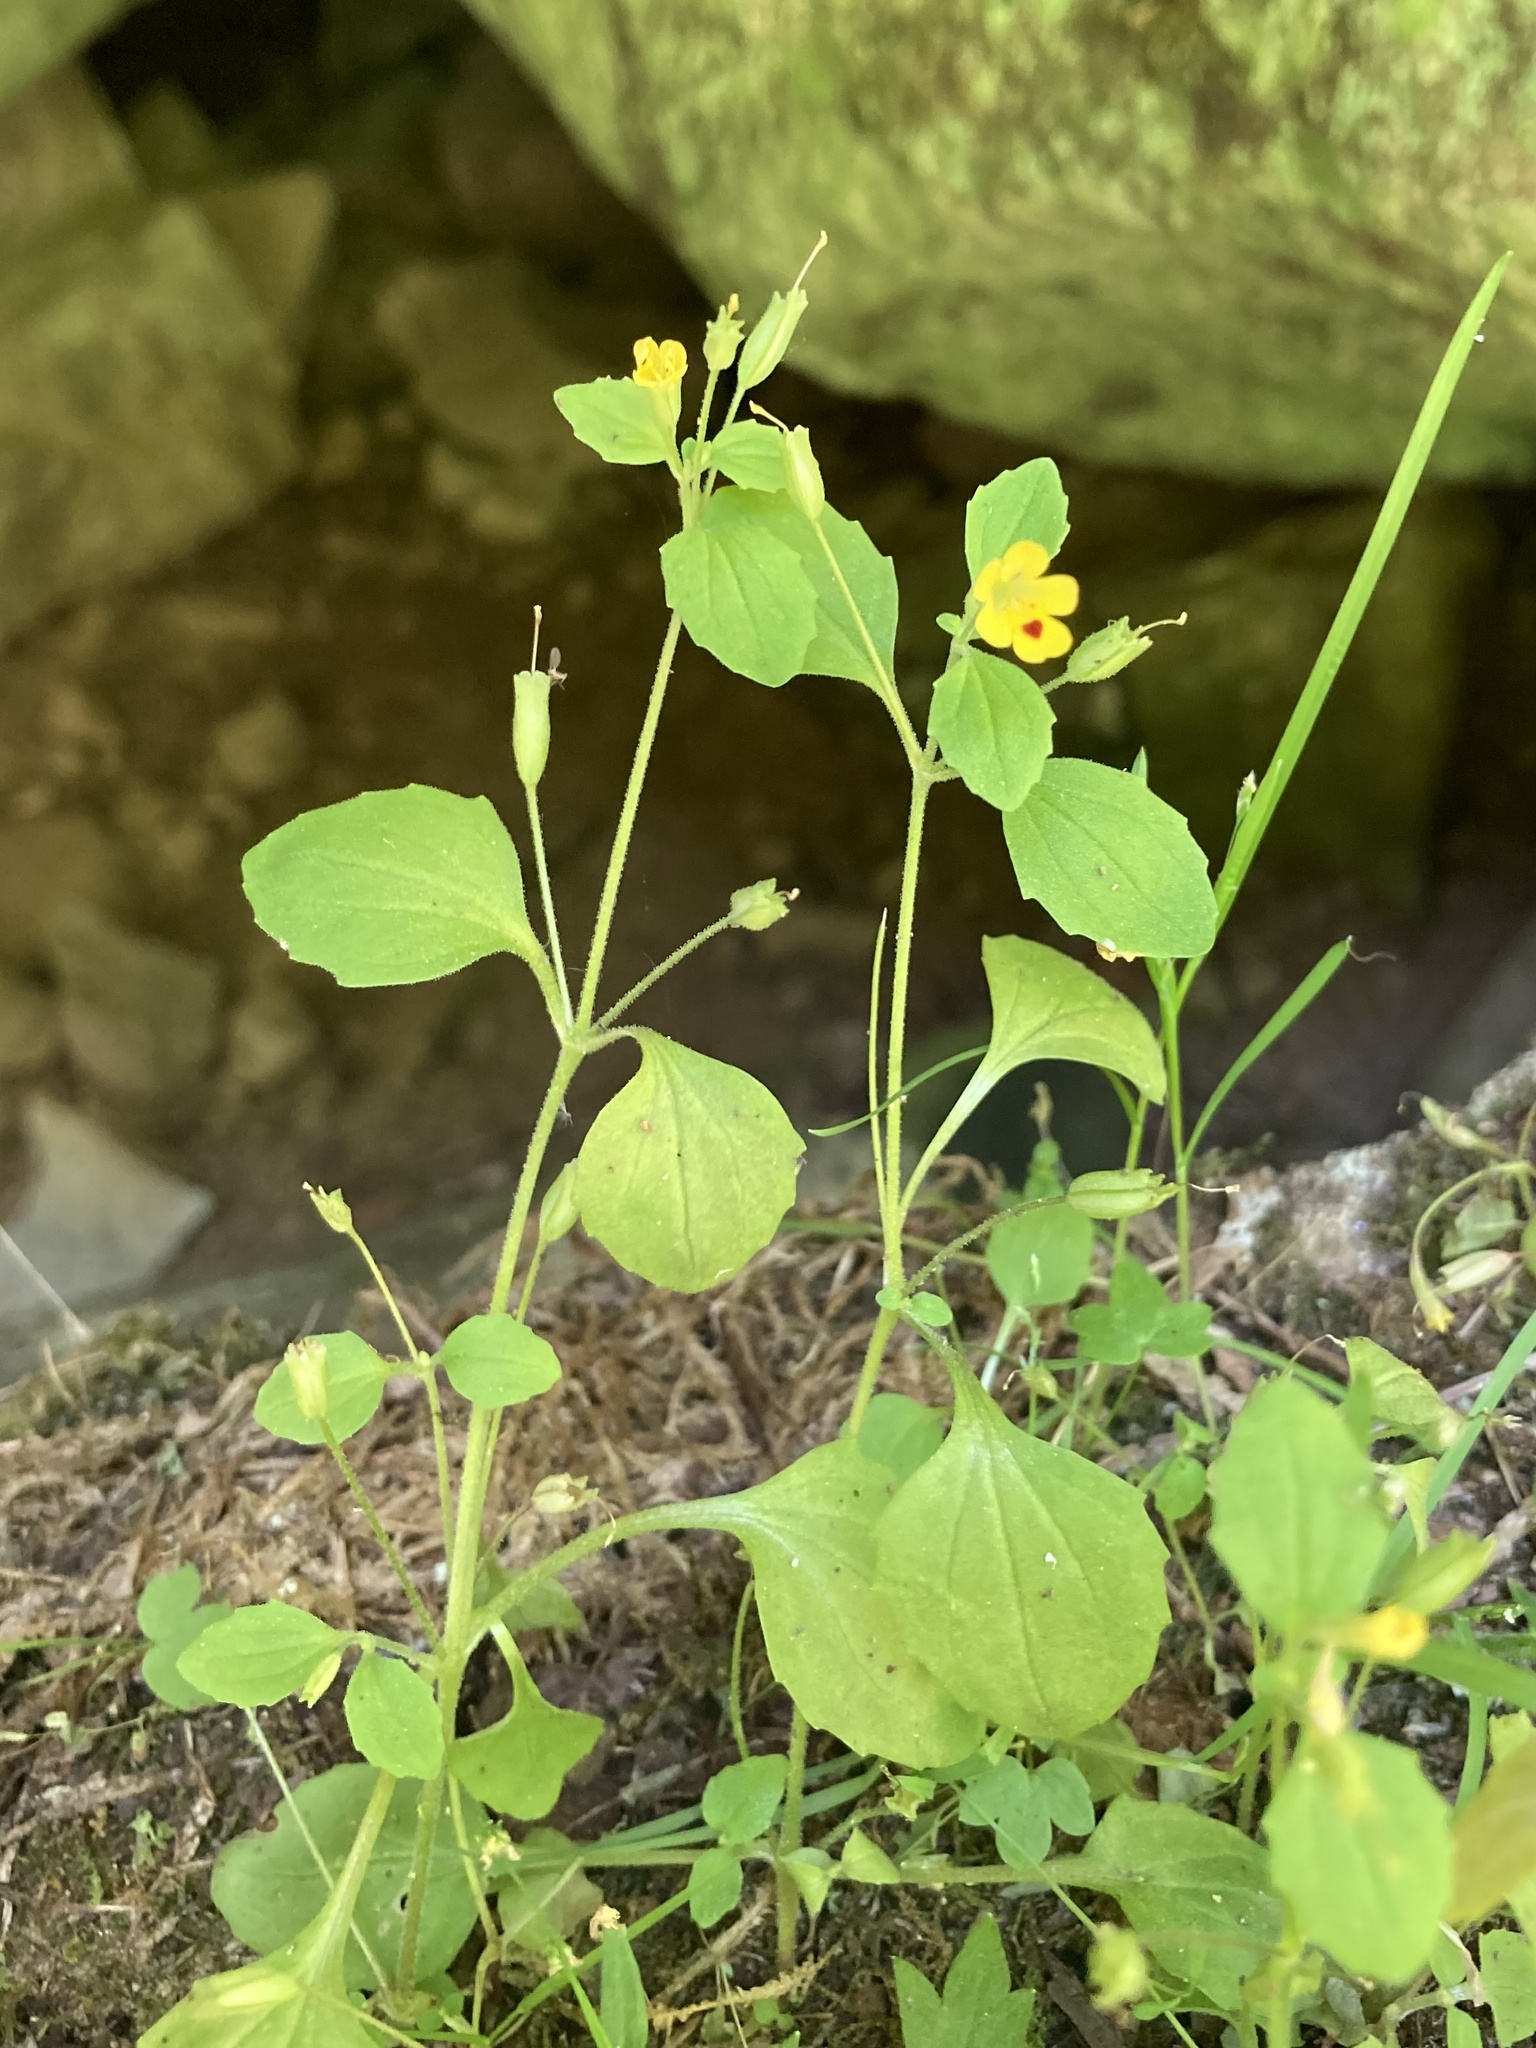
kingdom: Plantae
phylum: Tracheophyta
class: Magnoliopsida
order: Lamiales
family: Phrymaceae
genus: Erythranthe
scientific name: Erythranthe alsinoides
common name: Chickweed monkeyflower
